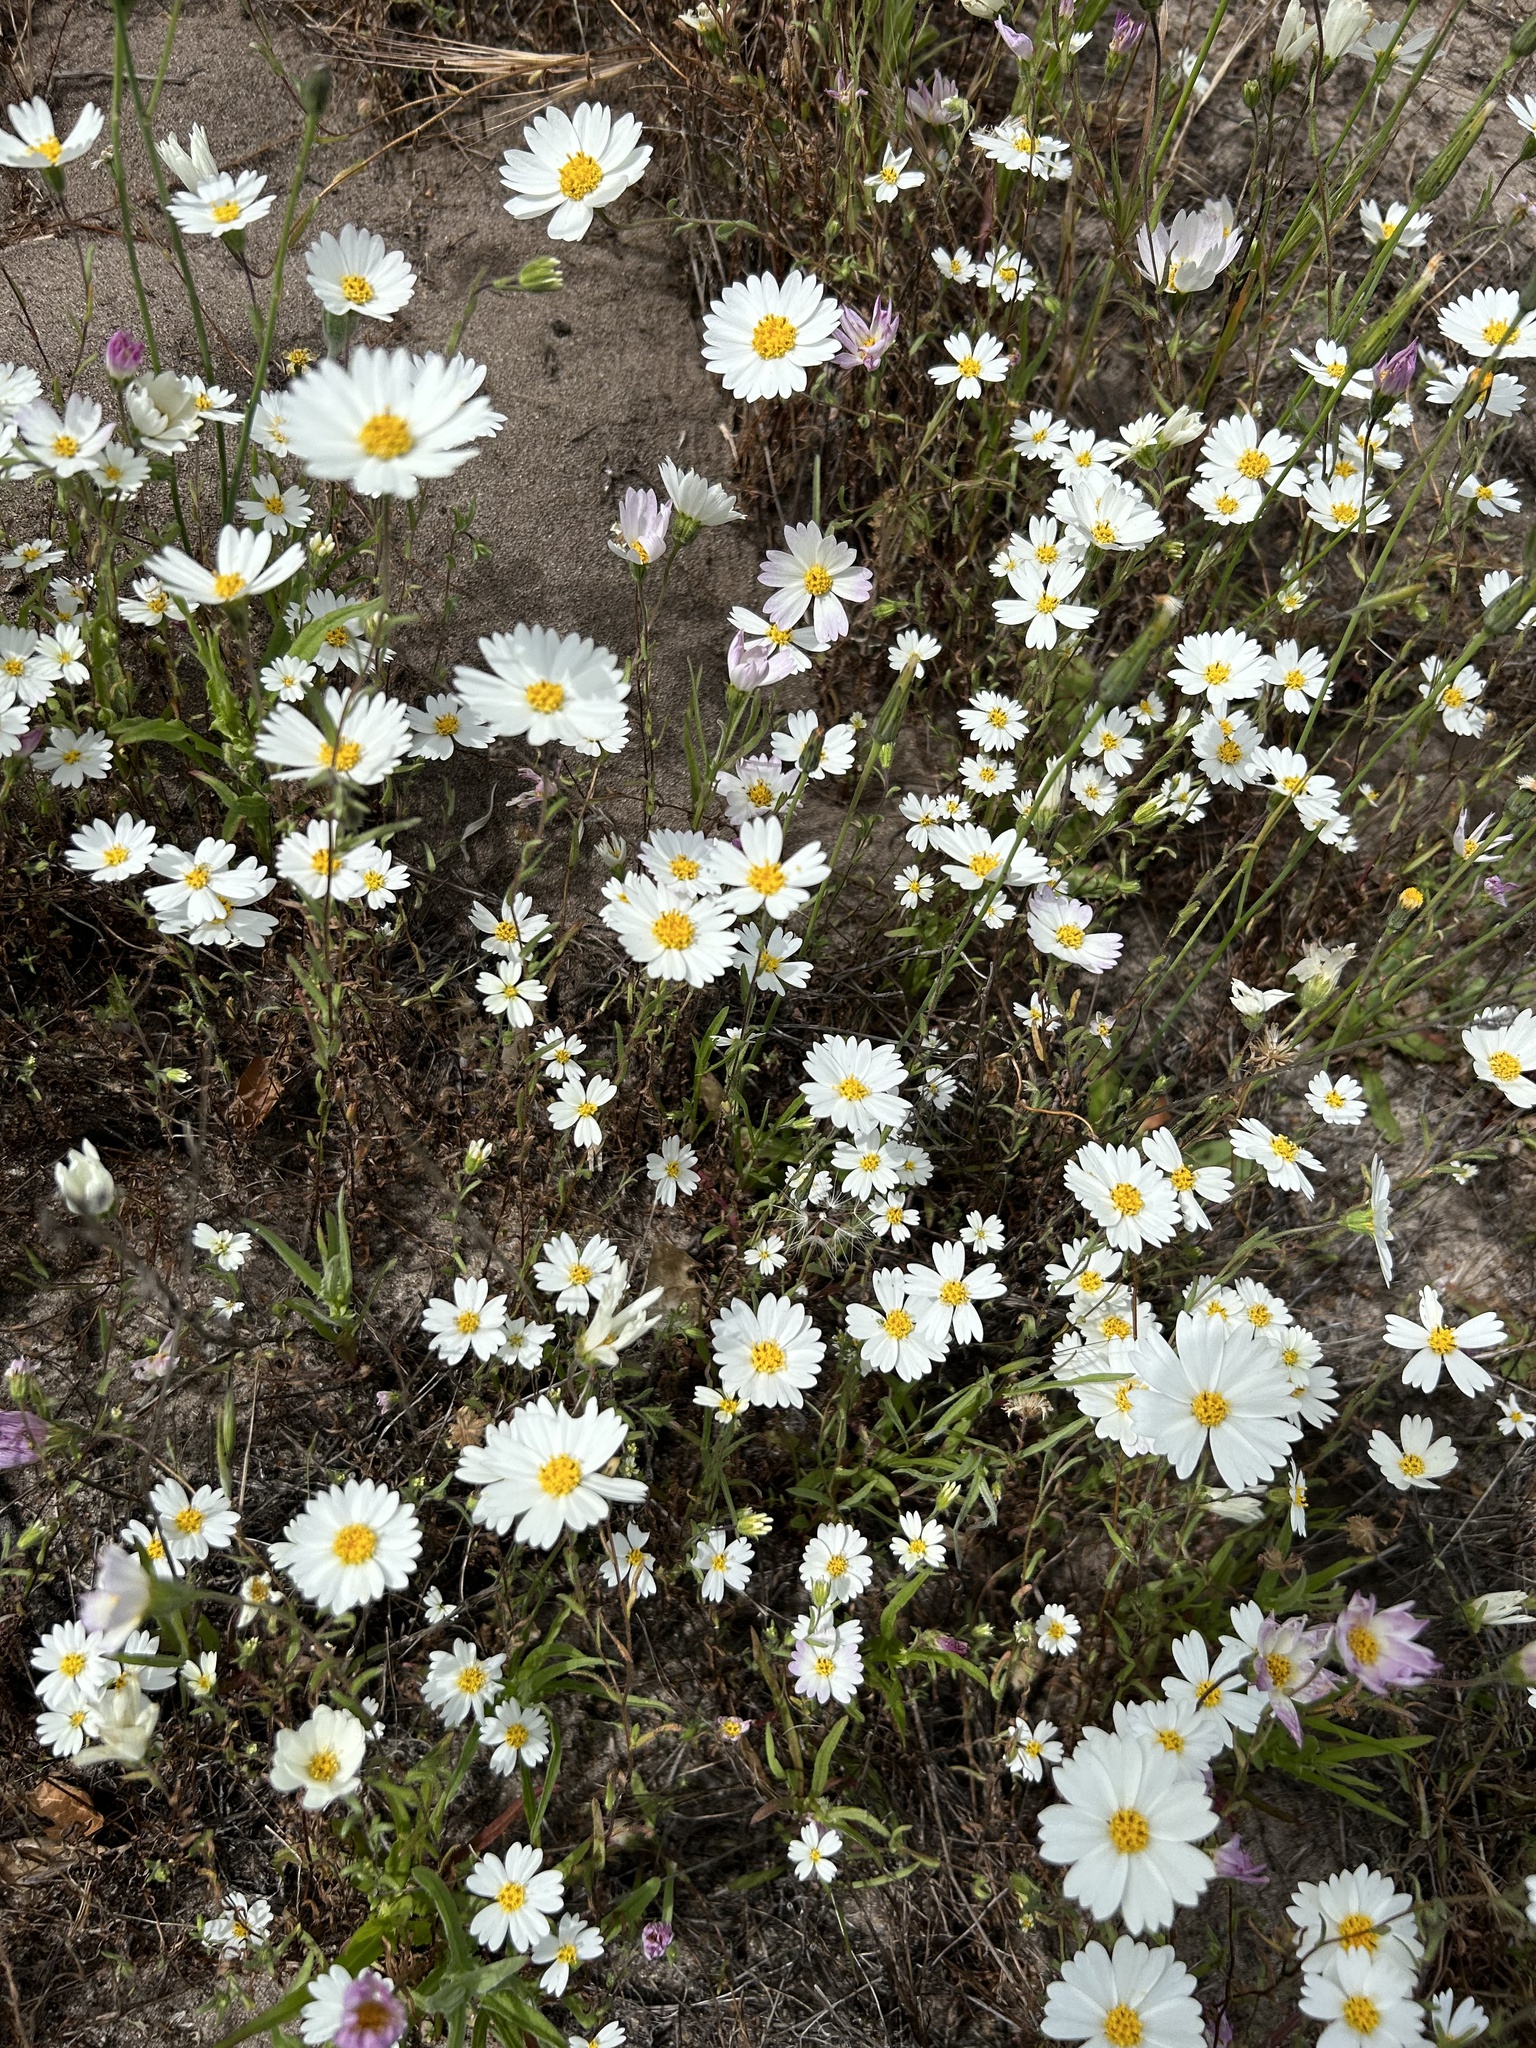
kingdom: Plantae
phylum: Tracheophyta
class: Magnoliopsida
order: Asterales
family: Asteraceae
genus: Layia
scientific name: Layia erubescens
